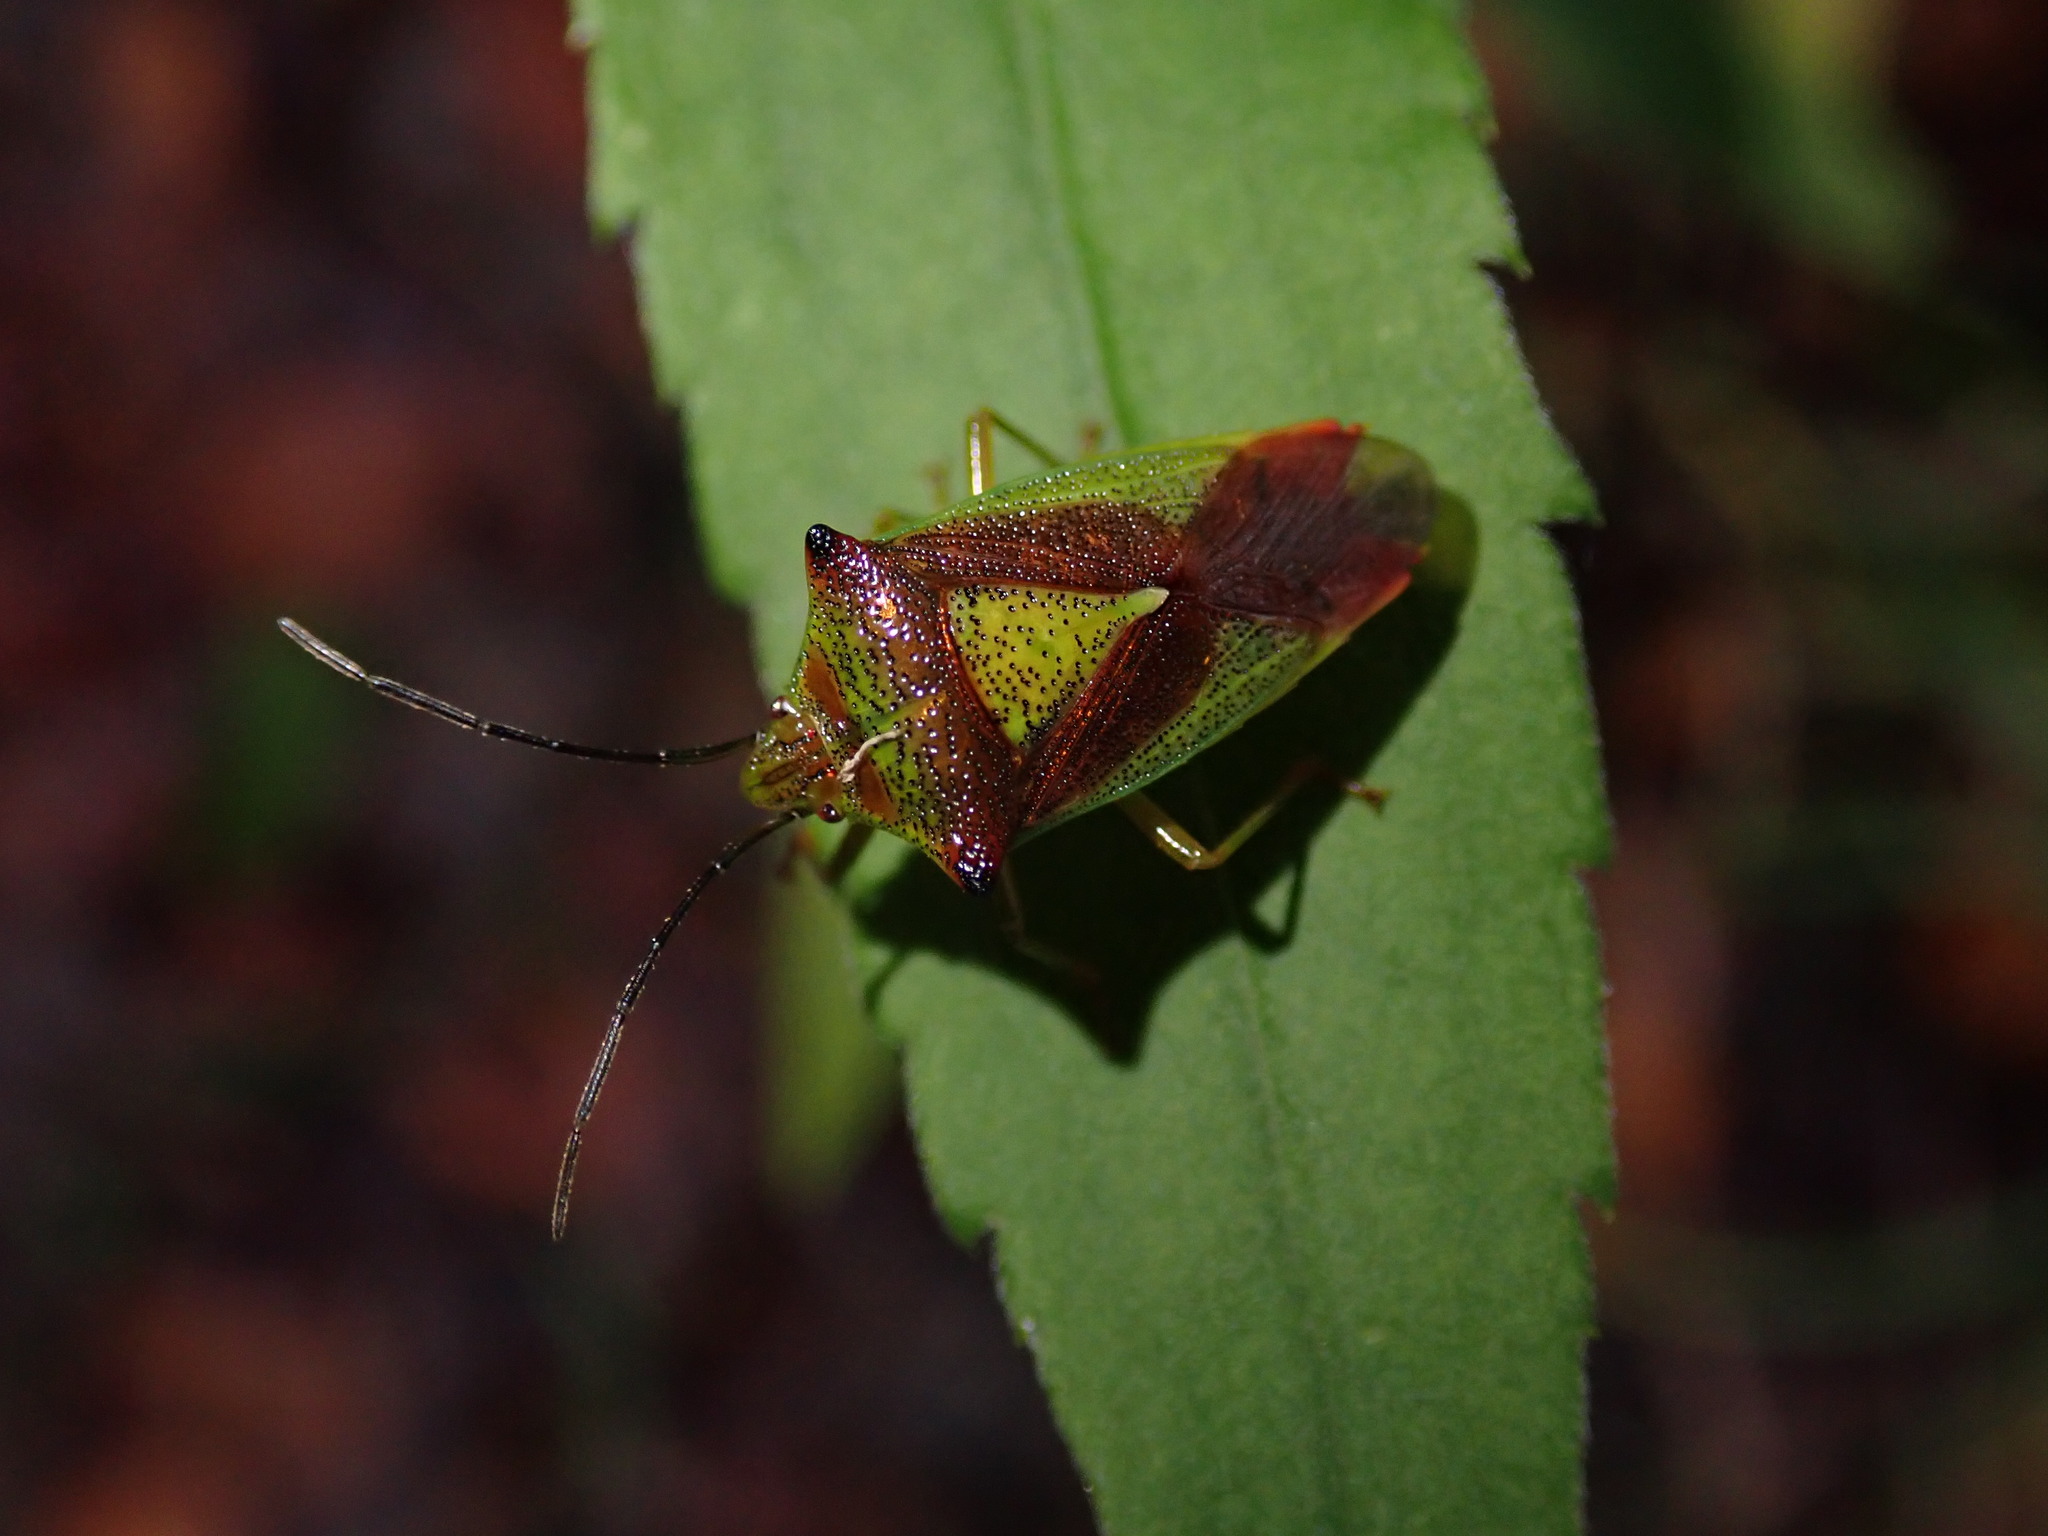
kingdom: Animalia
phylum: Arthropoda
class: Insecta
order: Hemiptera
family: Acanthosomatidae
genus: Acanthosoma
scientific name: Acanthosoma haemorrhoidale
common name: Hawthorn shieldbug
